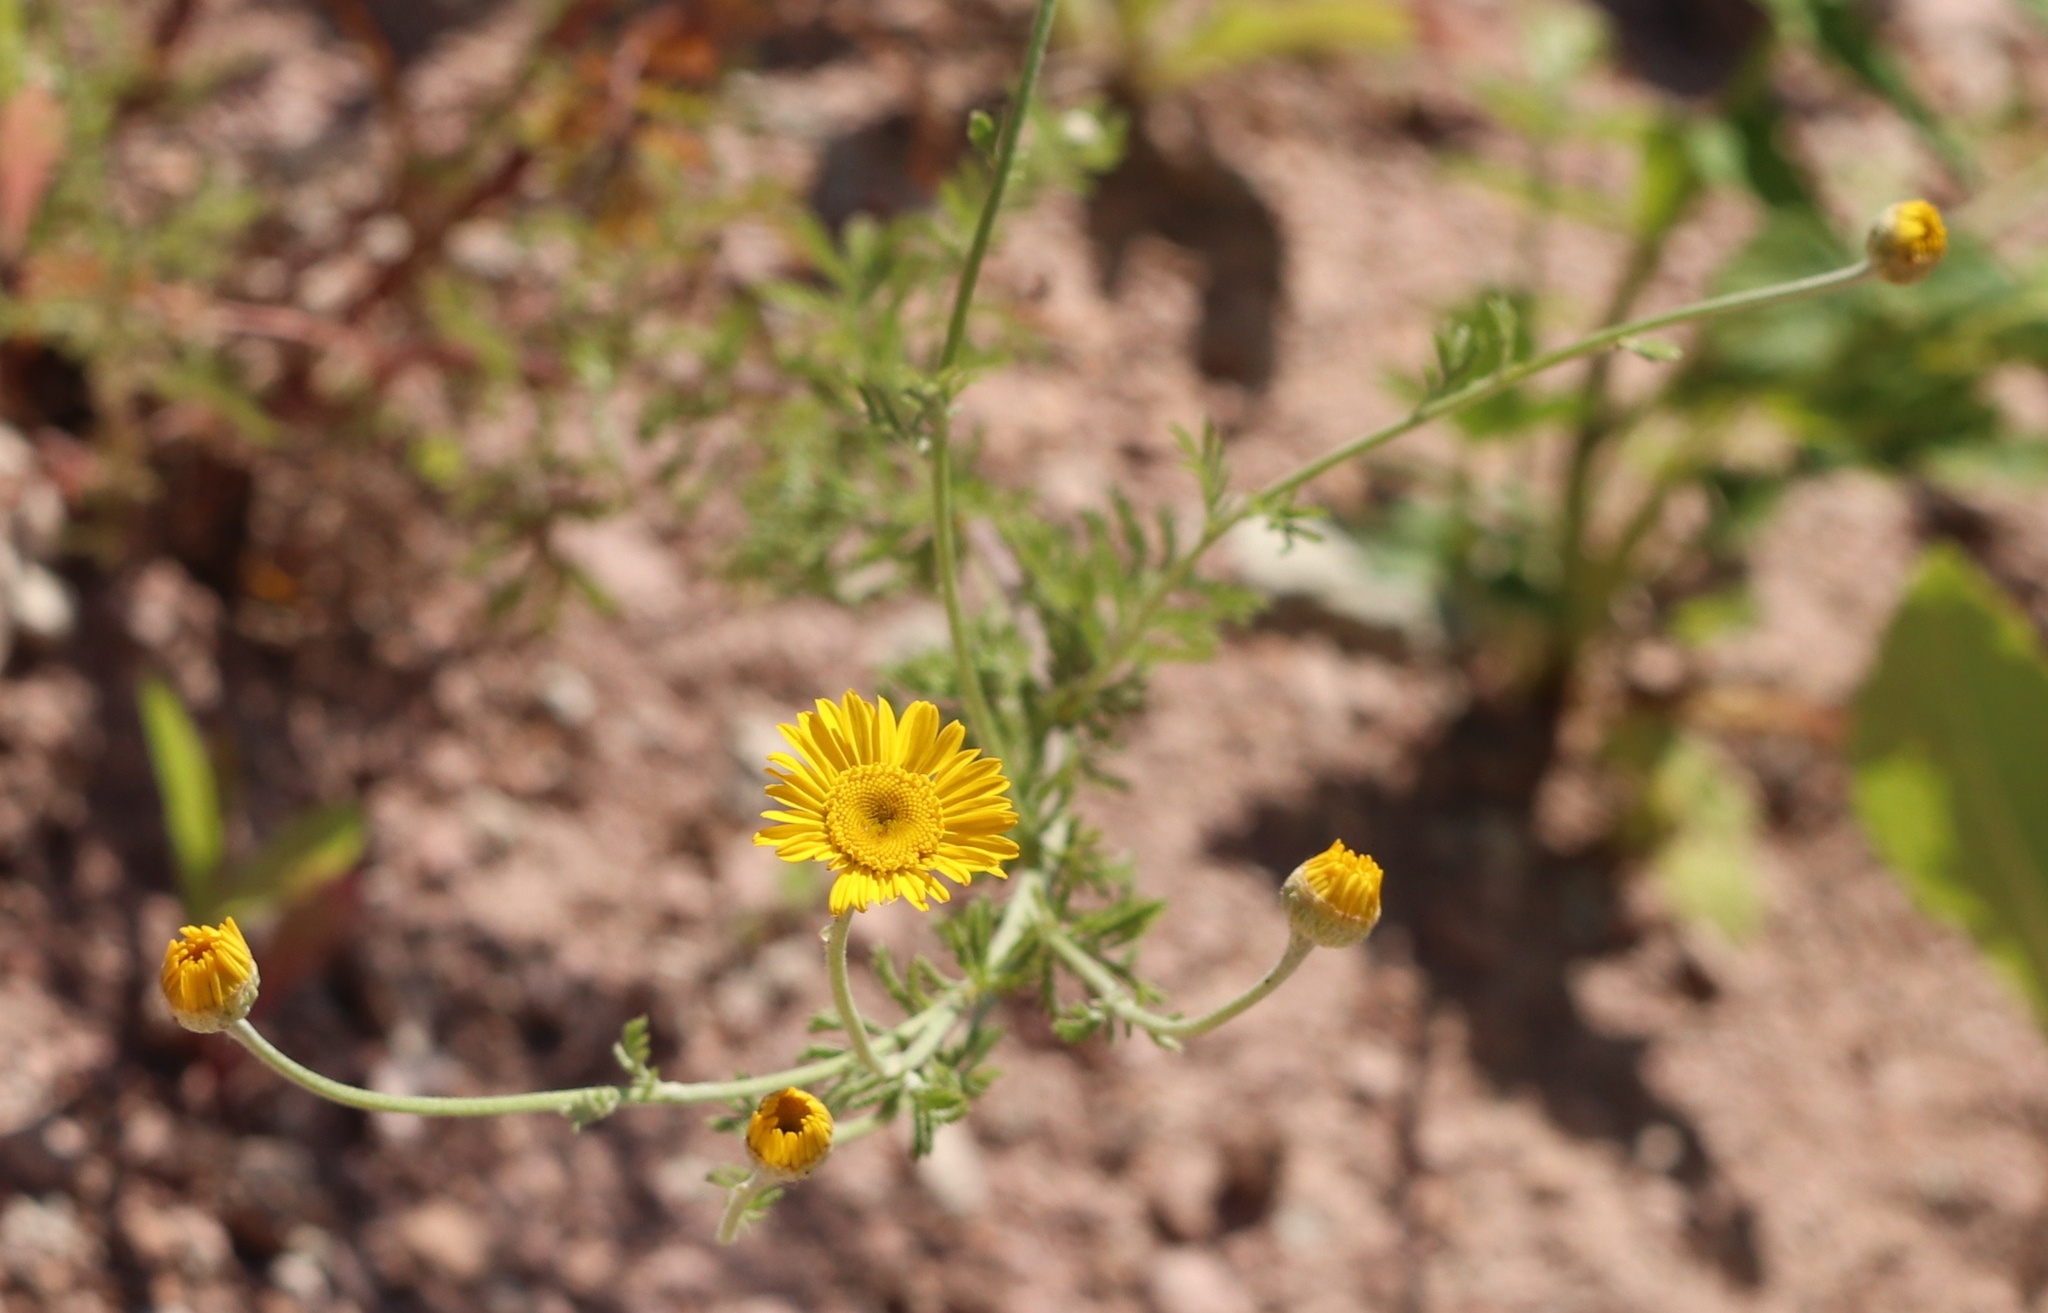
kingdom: Plantae
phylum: Tracheophyta
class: Magnoliopsida
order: Asterales
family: Asteraceae
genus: Cota
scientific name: Cota tinctoria
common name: Golden chamomile
